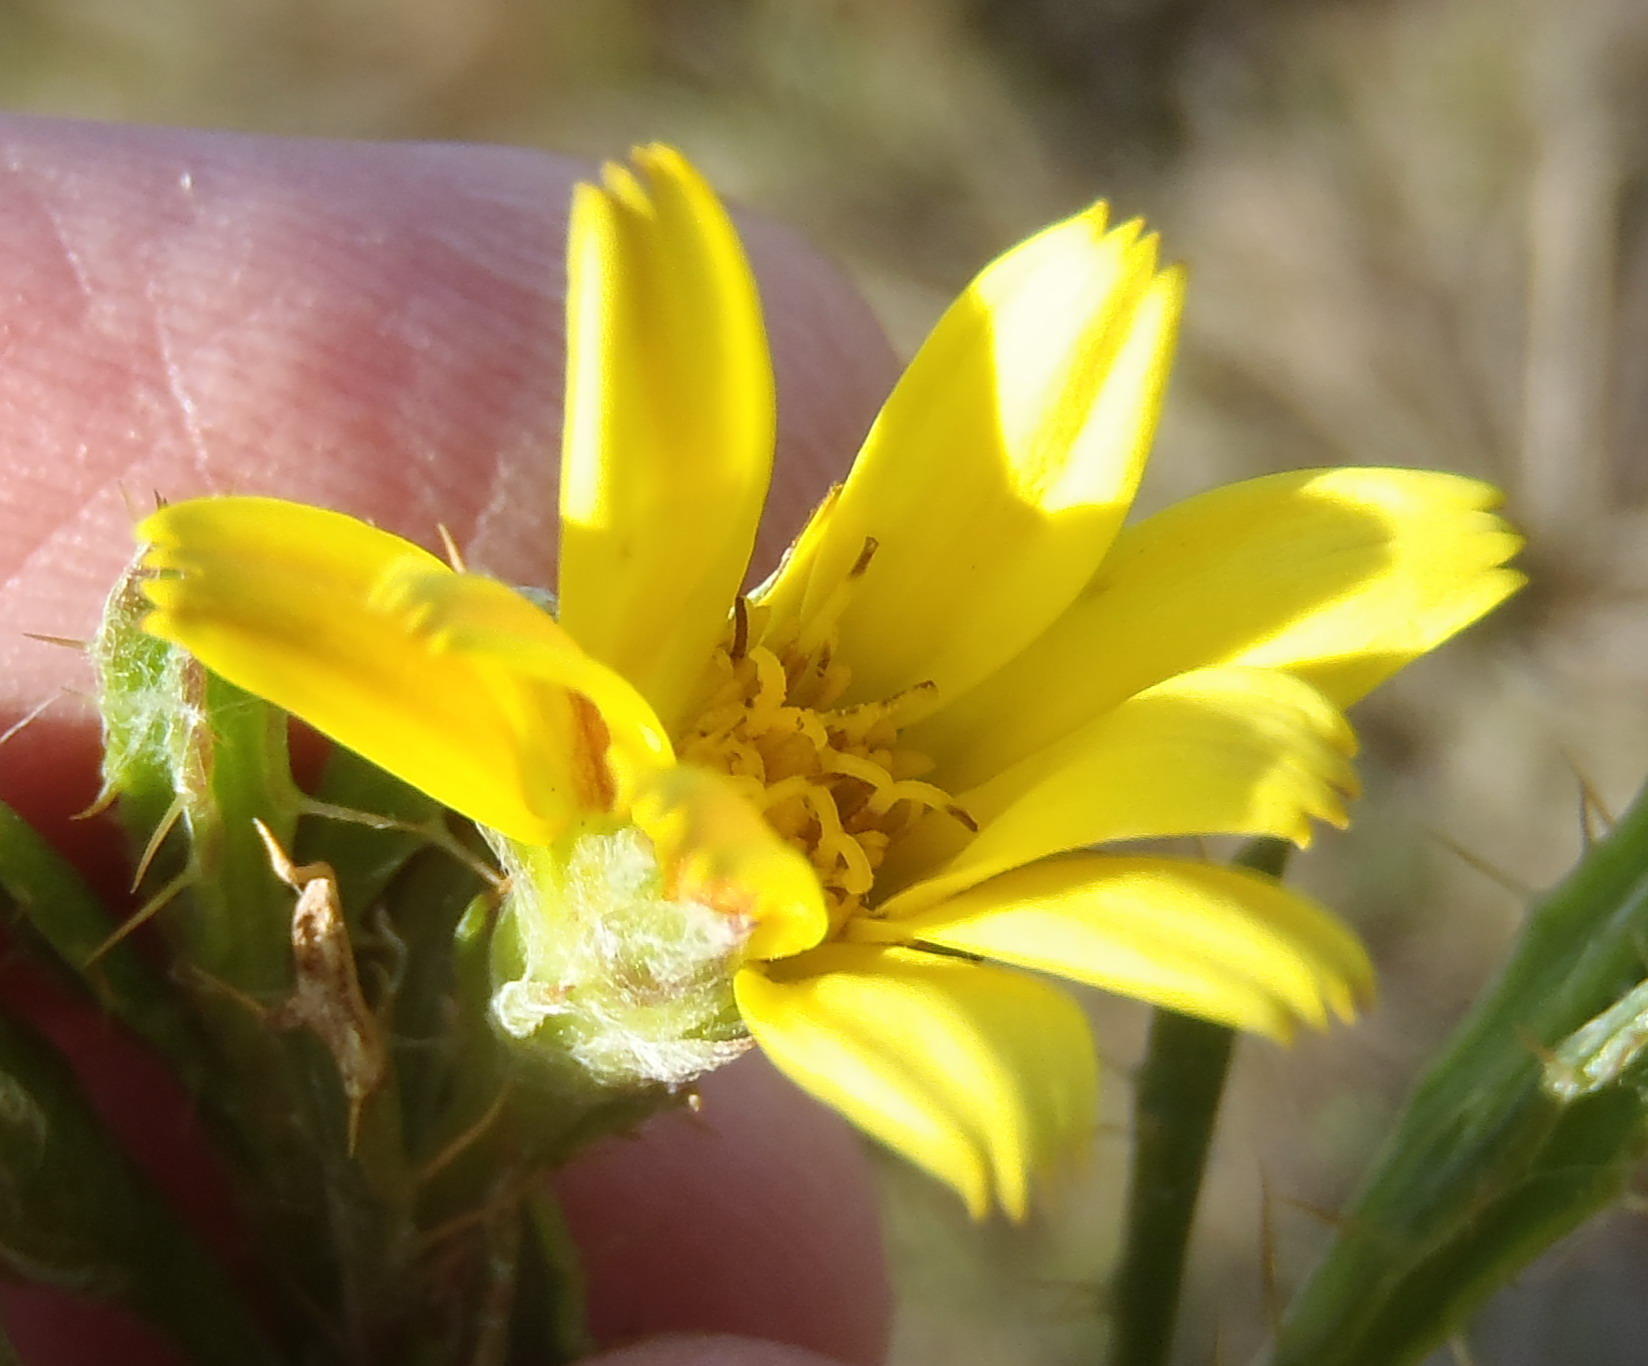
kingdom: Plantae
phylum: Tracheophyta
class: Magnoliopsida
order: Asterales
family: Asteraceae
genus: Cullumia
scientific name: Cullumia aculeata
